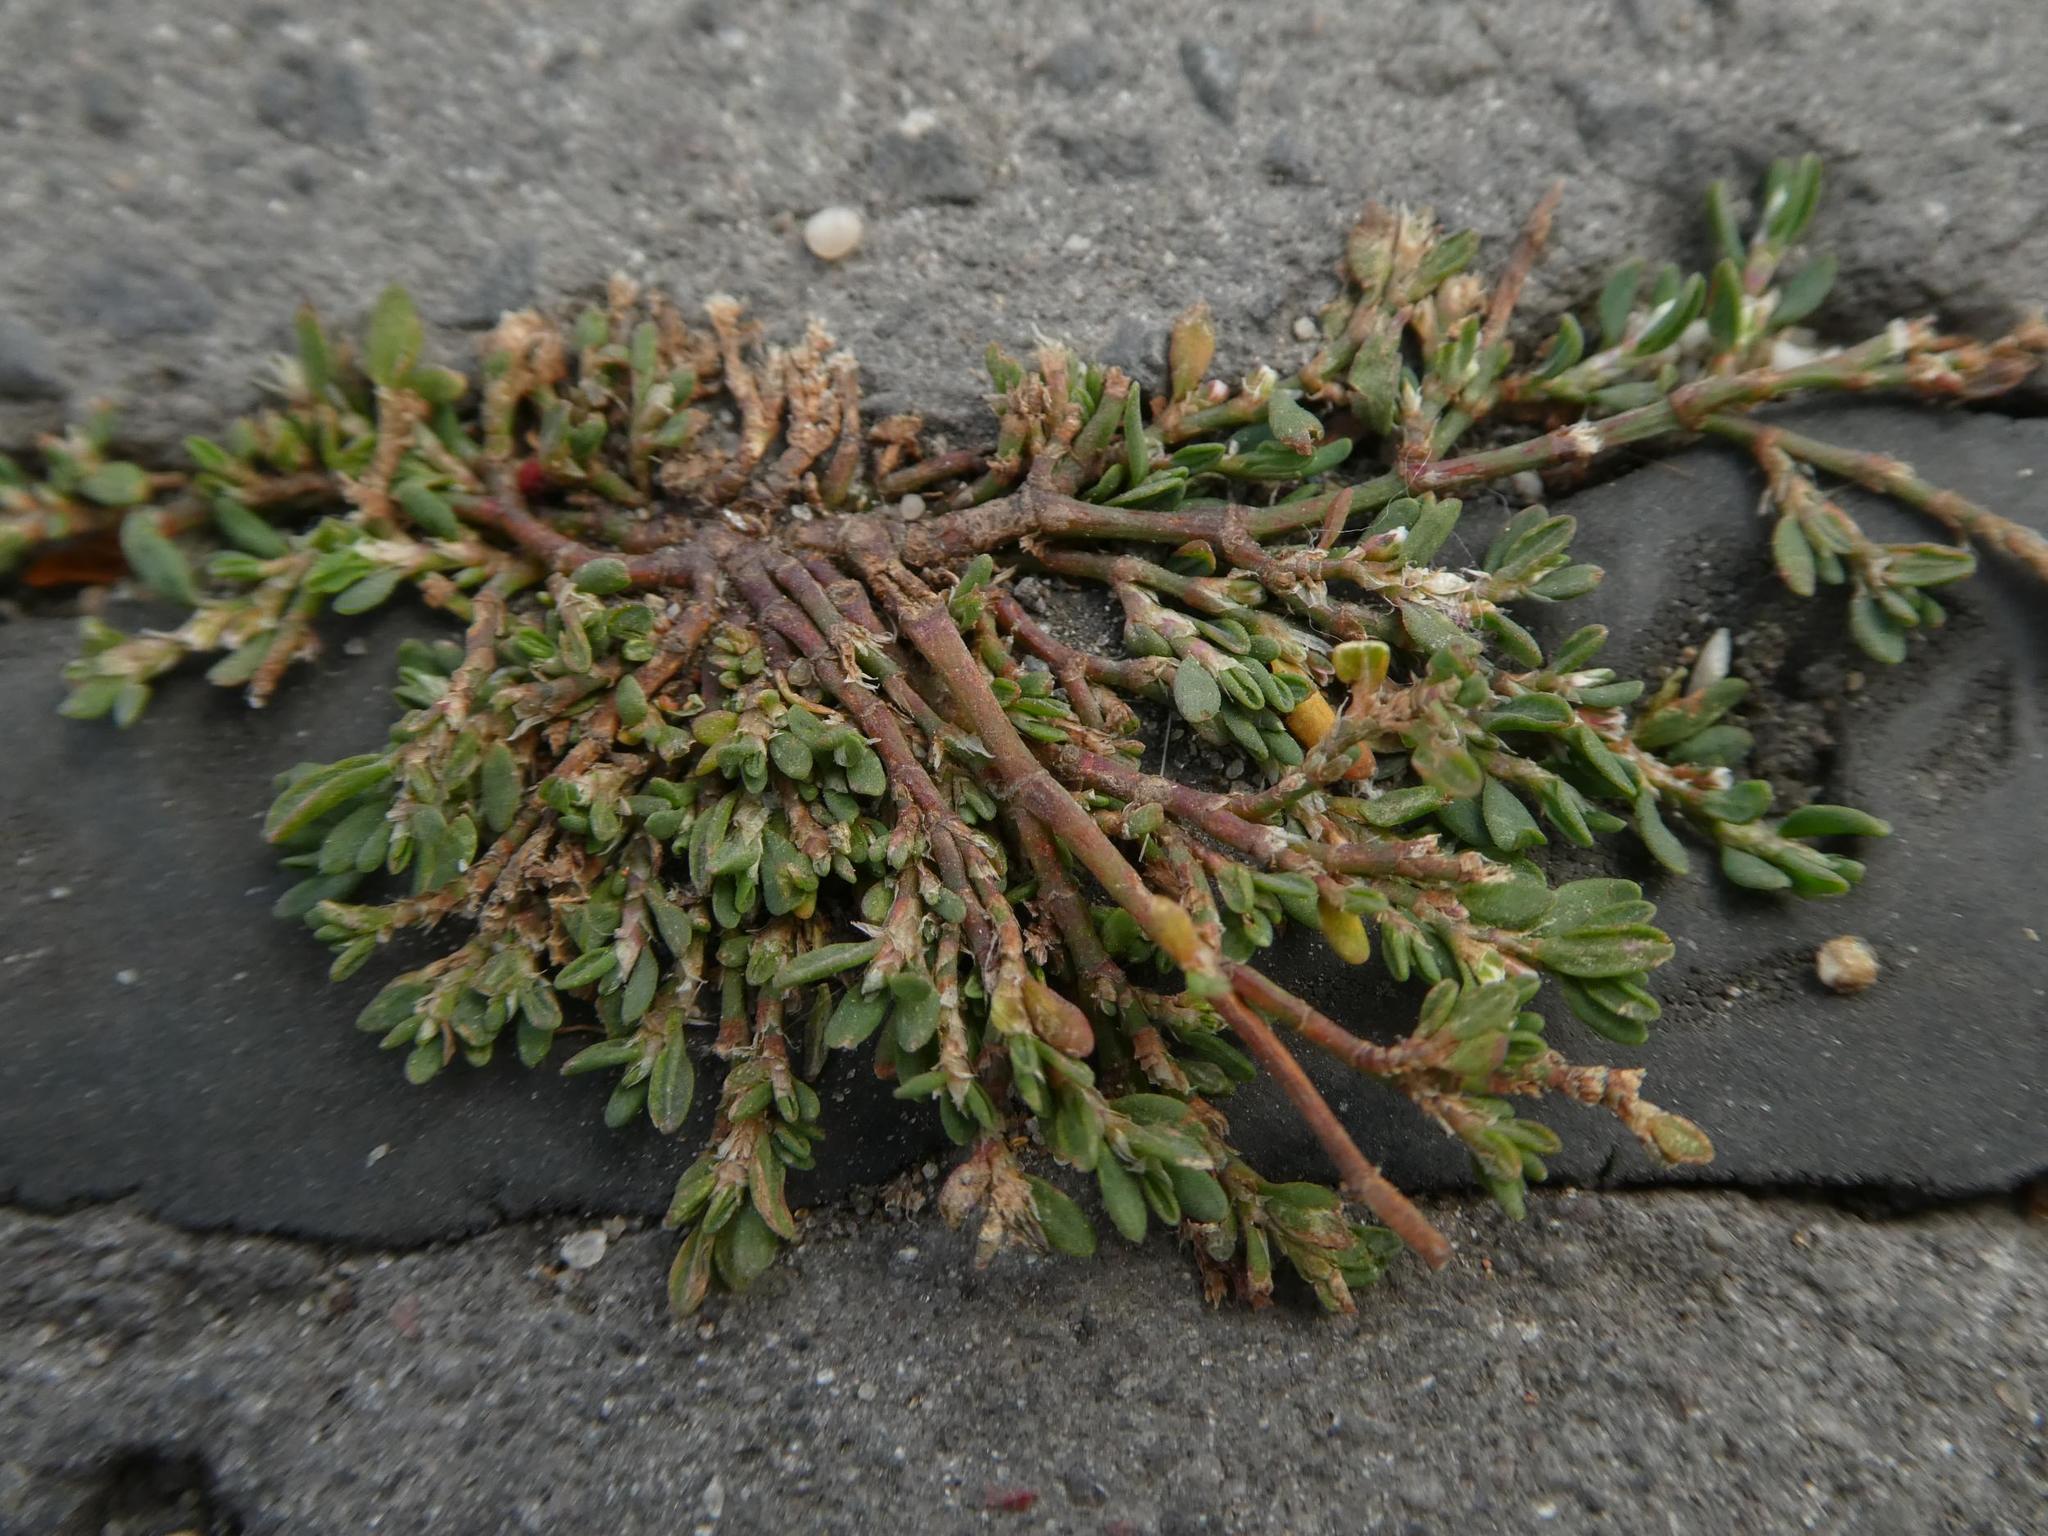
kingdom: Plantae
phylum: Tracheophyta
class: Magnoliopsida
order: Caryophyllales
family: Polygonaceae
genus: Polygonum
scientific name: Polygonum arenastrum
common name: Equal-leaved knotgrass
